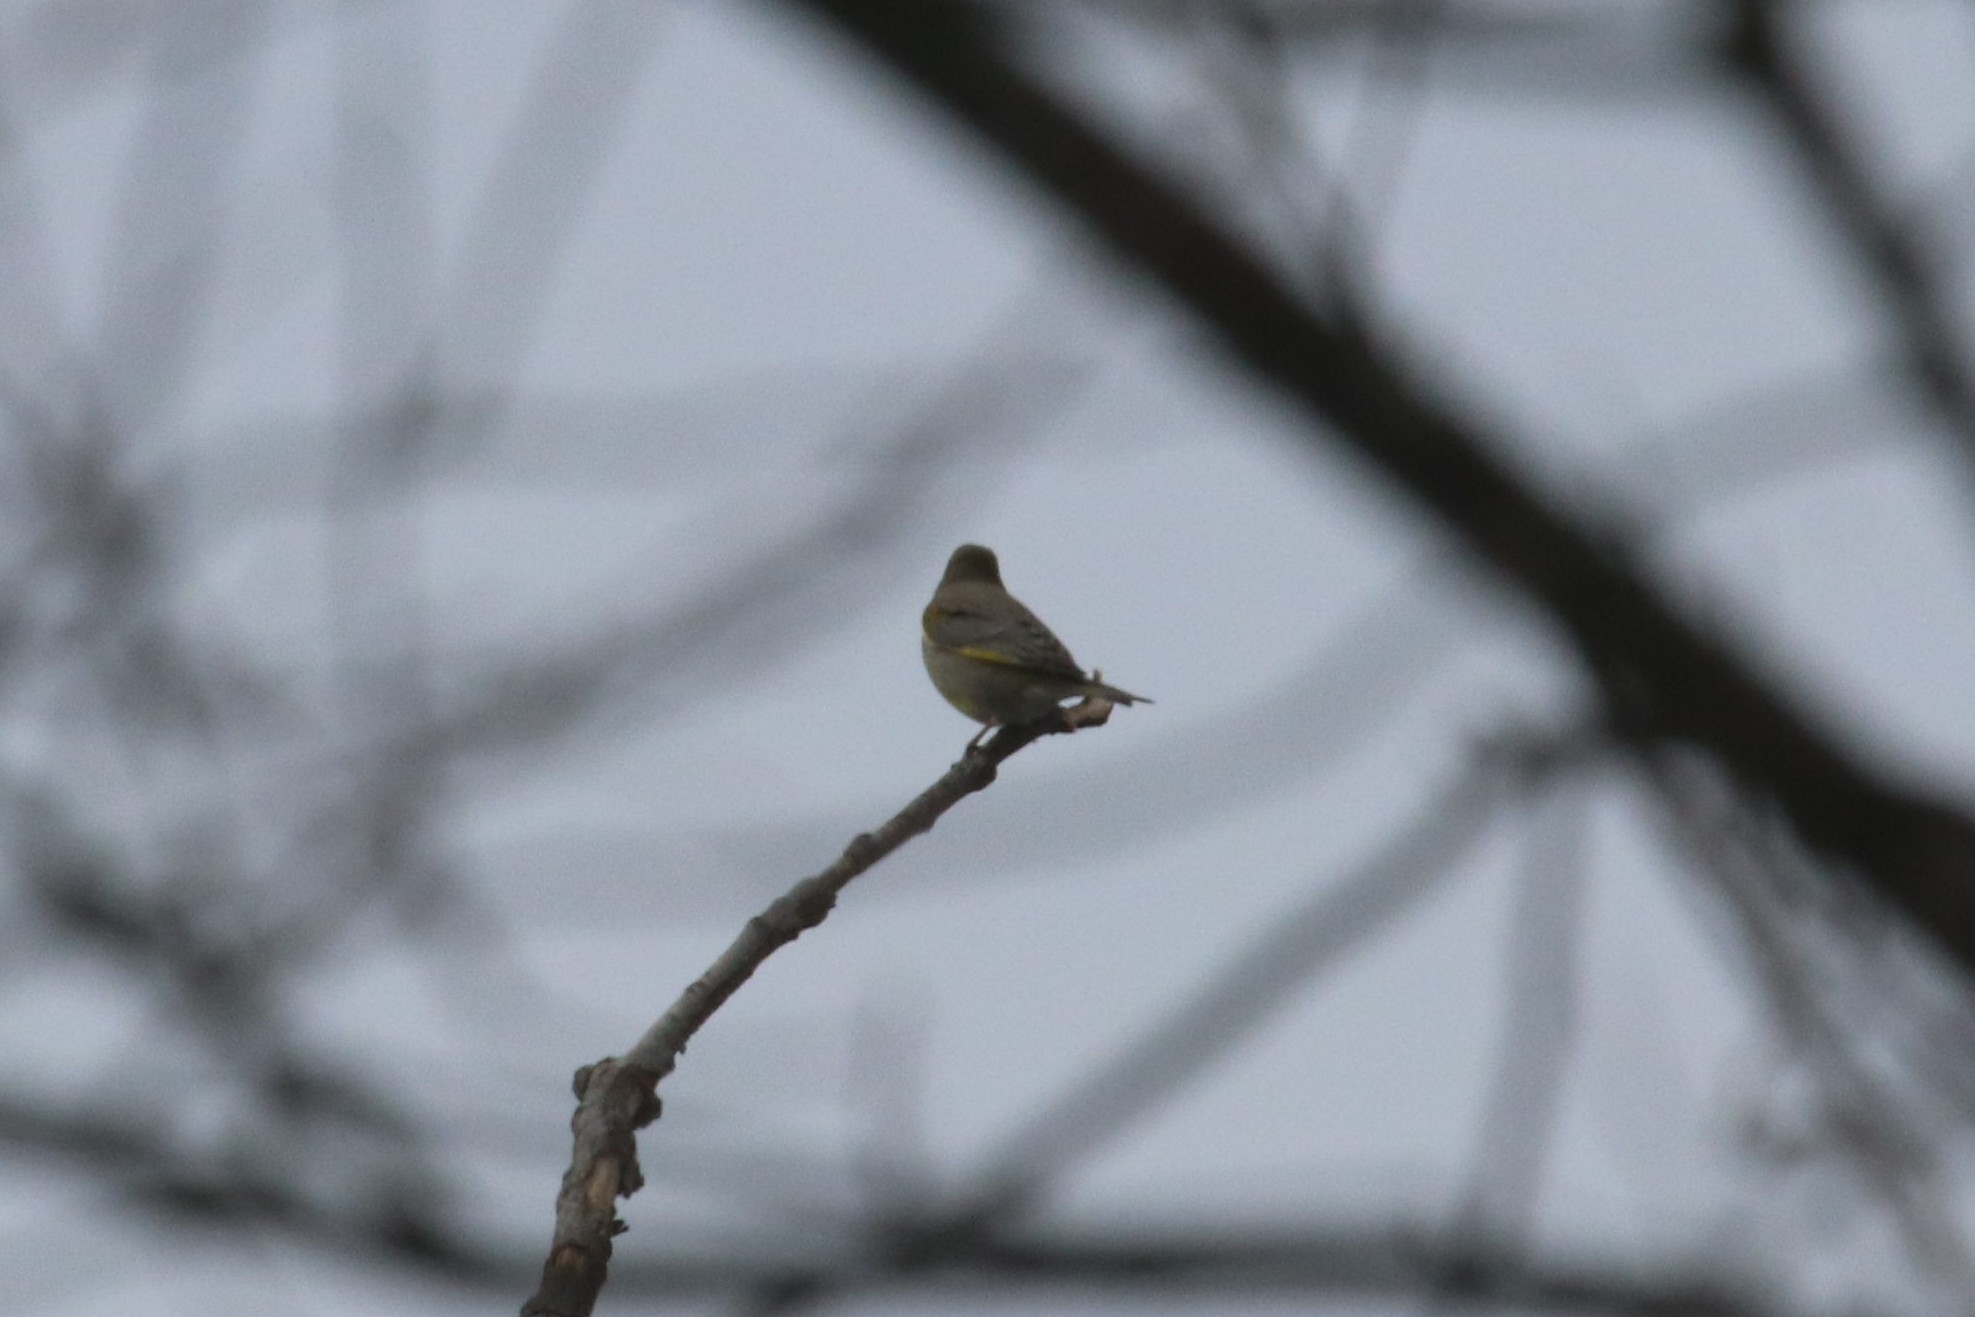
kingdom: Plantae
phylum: Tracheophyta
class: Liliopsida
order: Poales
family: Poaceae
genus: Chloris
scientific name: Chloris chloris
